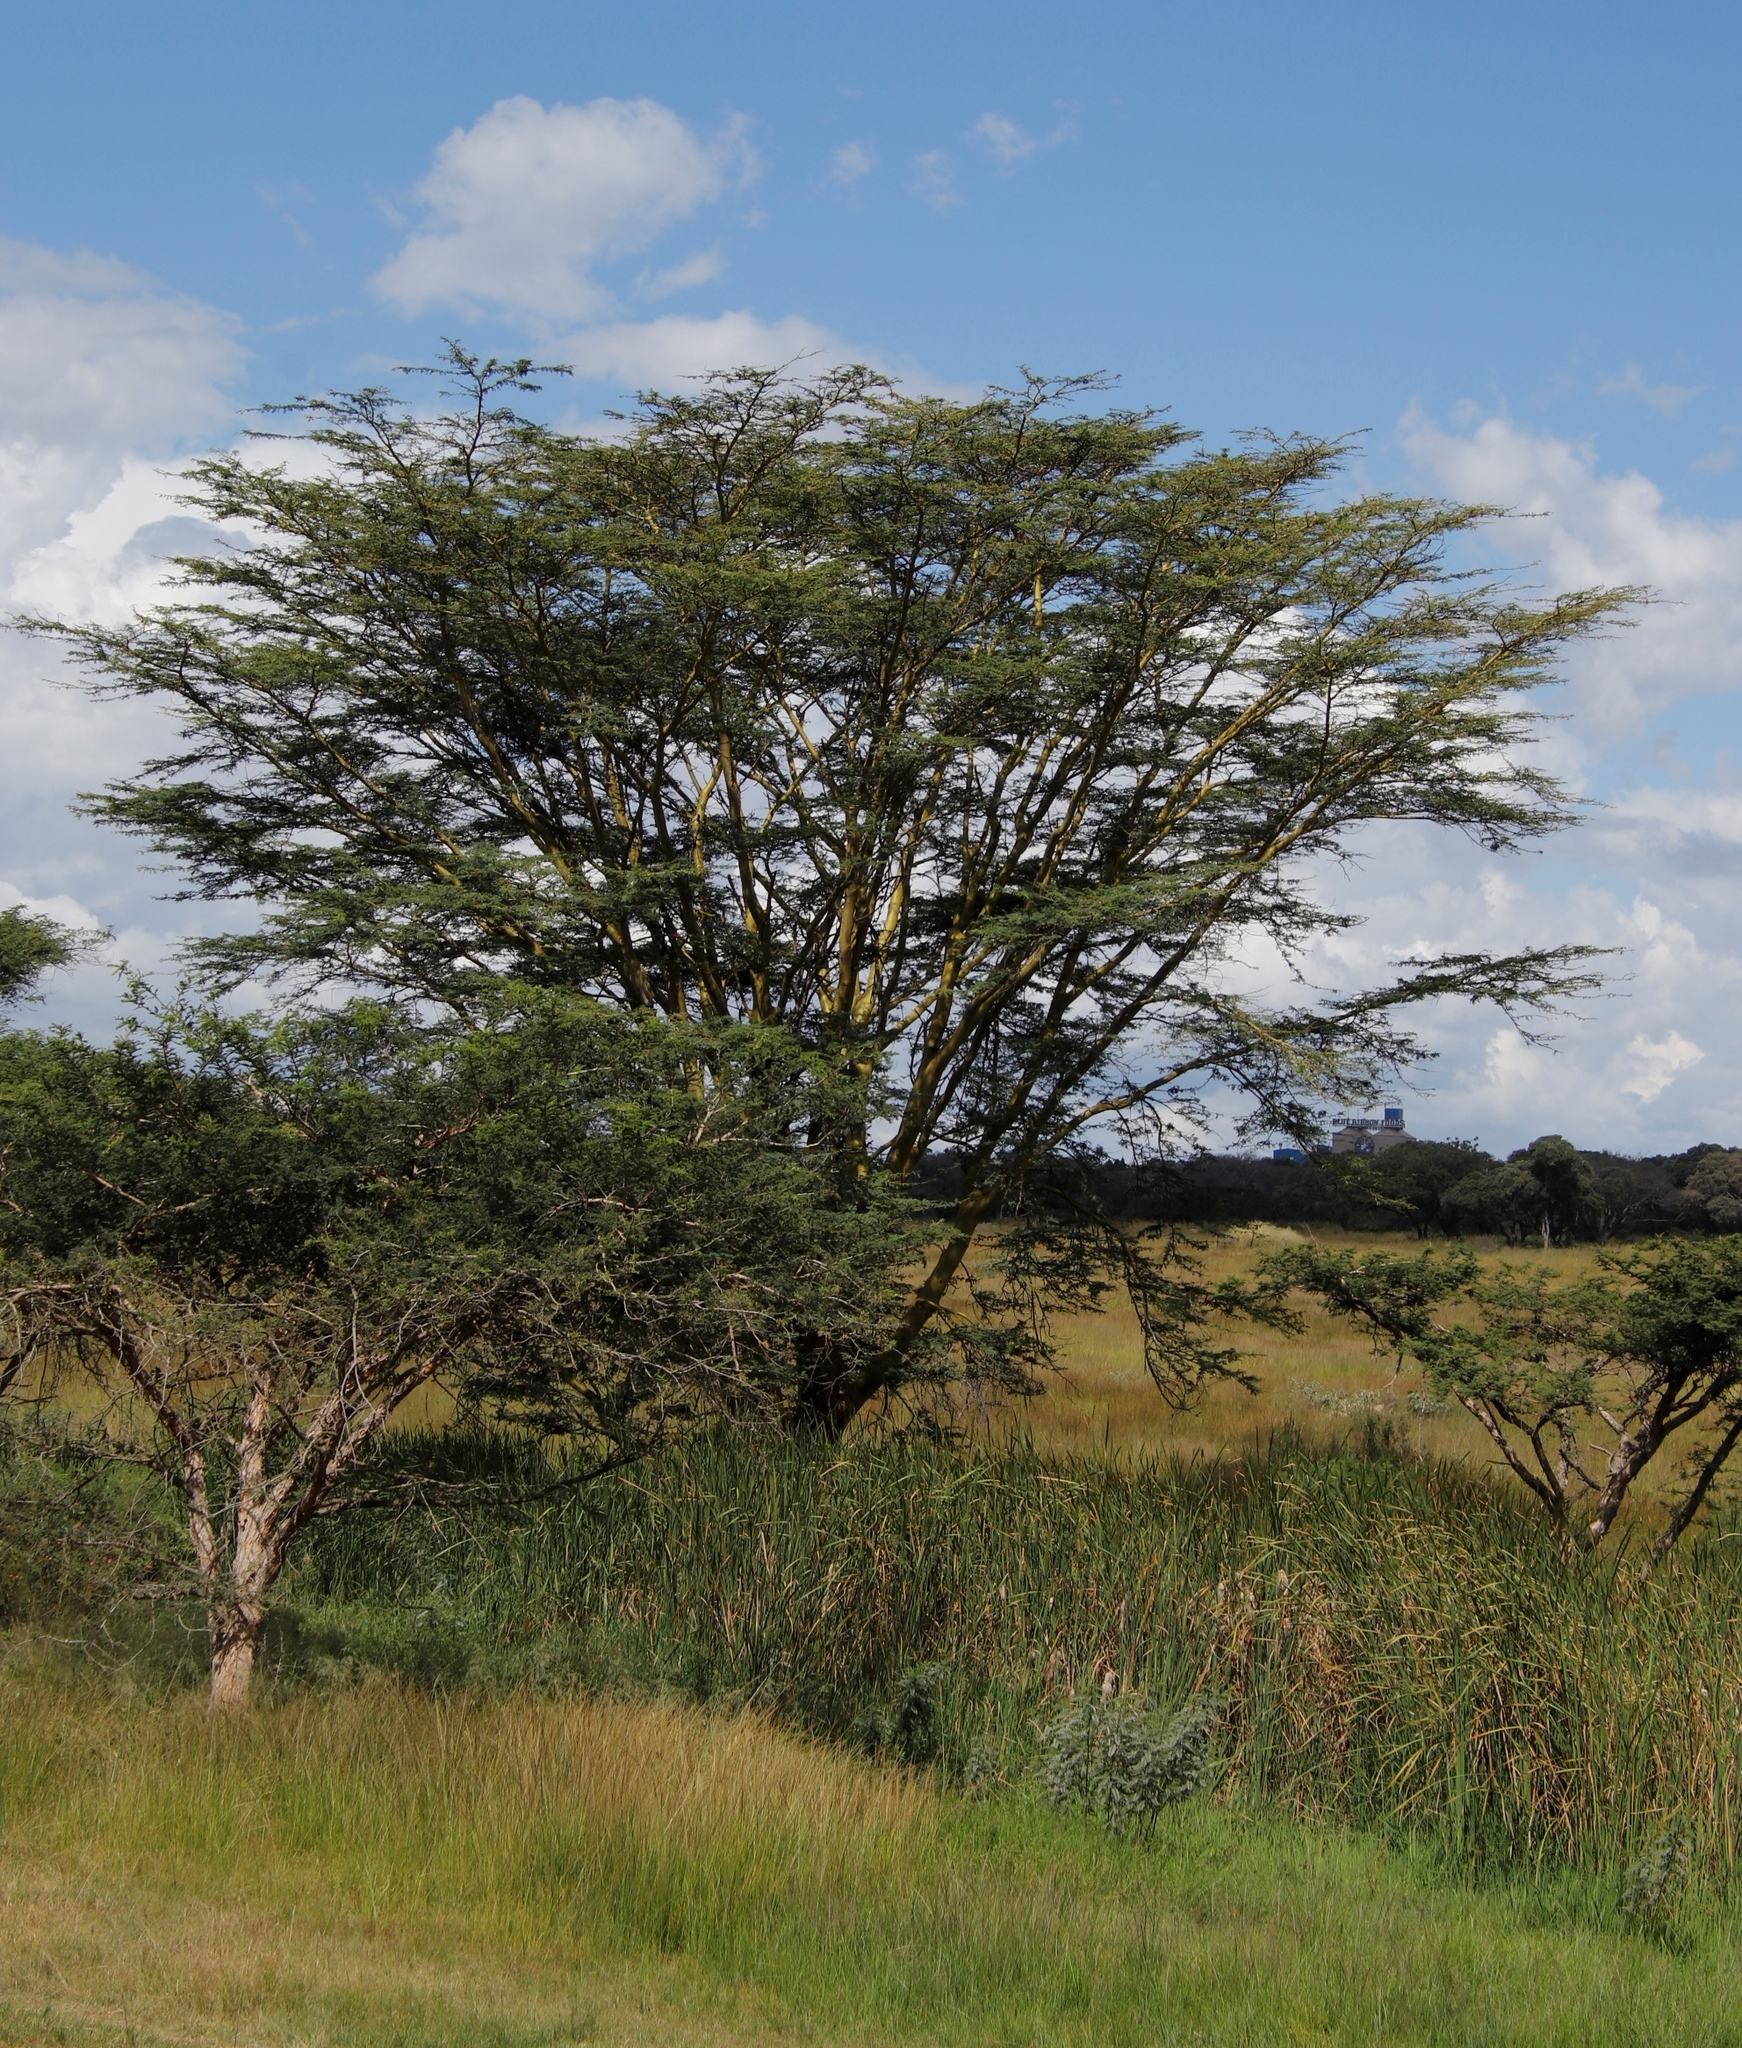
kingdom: Plantae
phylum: Tracheophyta
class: Magnoliopsida
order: Fabales
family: Fabaceae
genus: Vachellia
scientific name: Vachellia xanthophloea
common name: Fever tree
